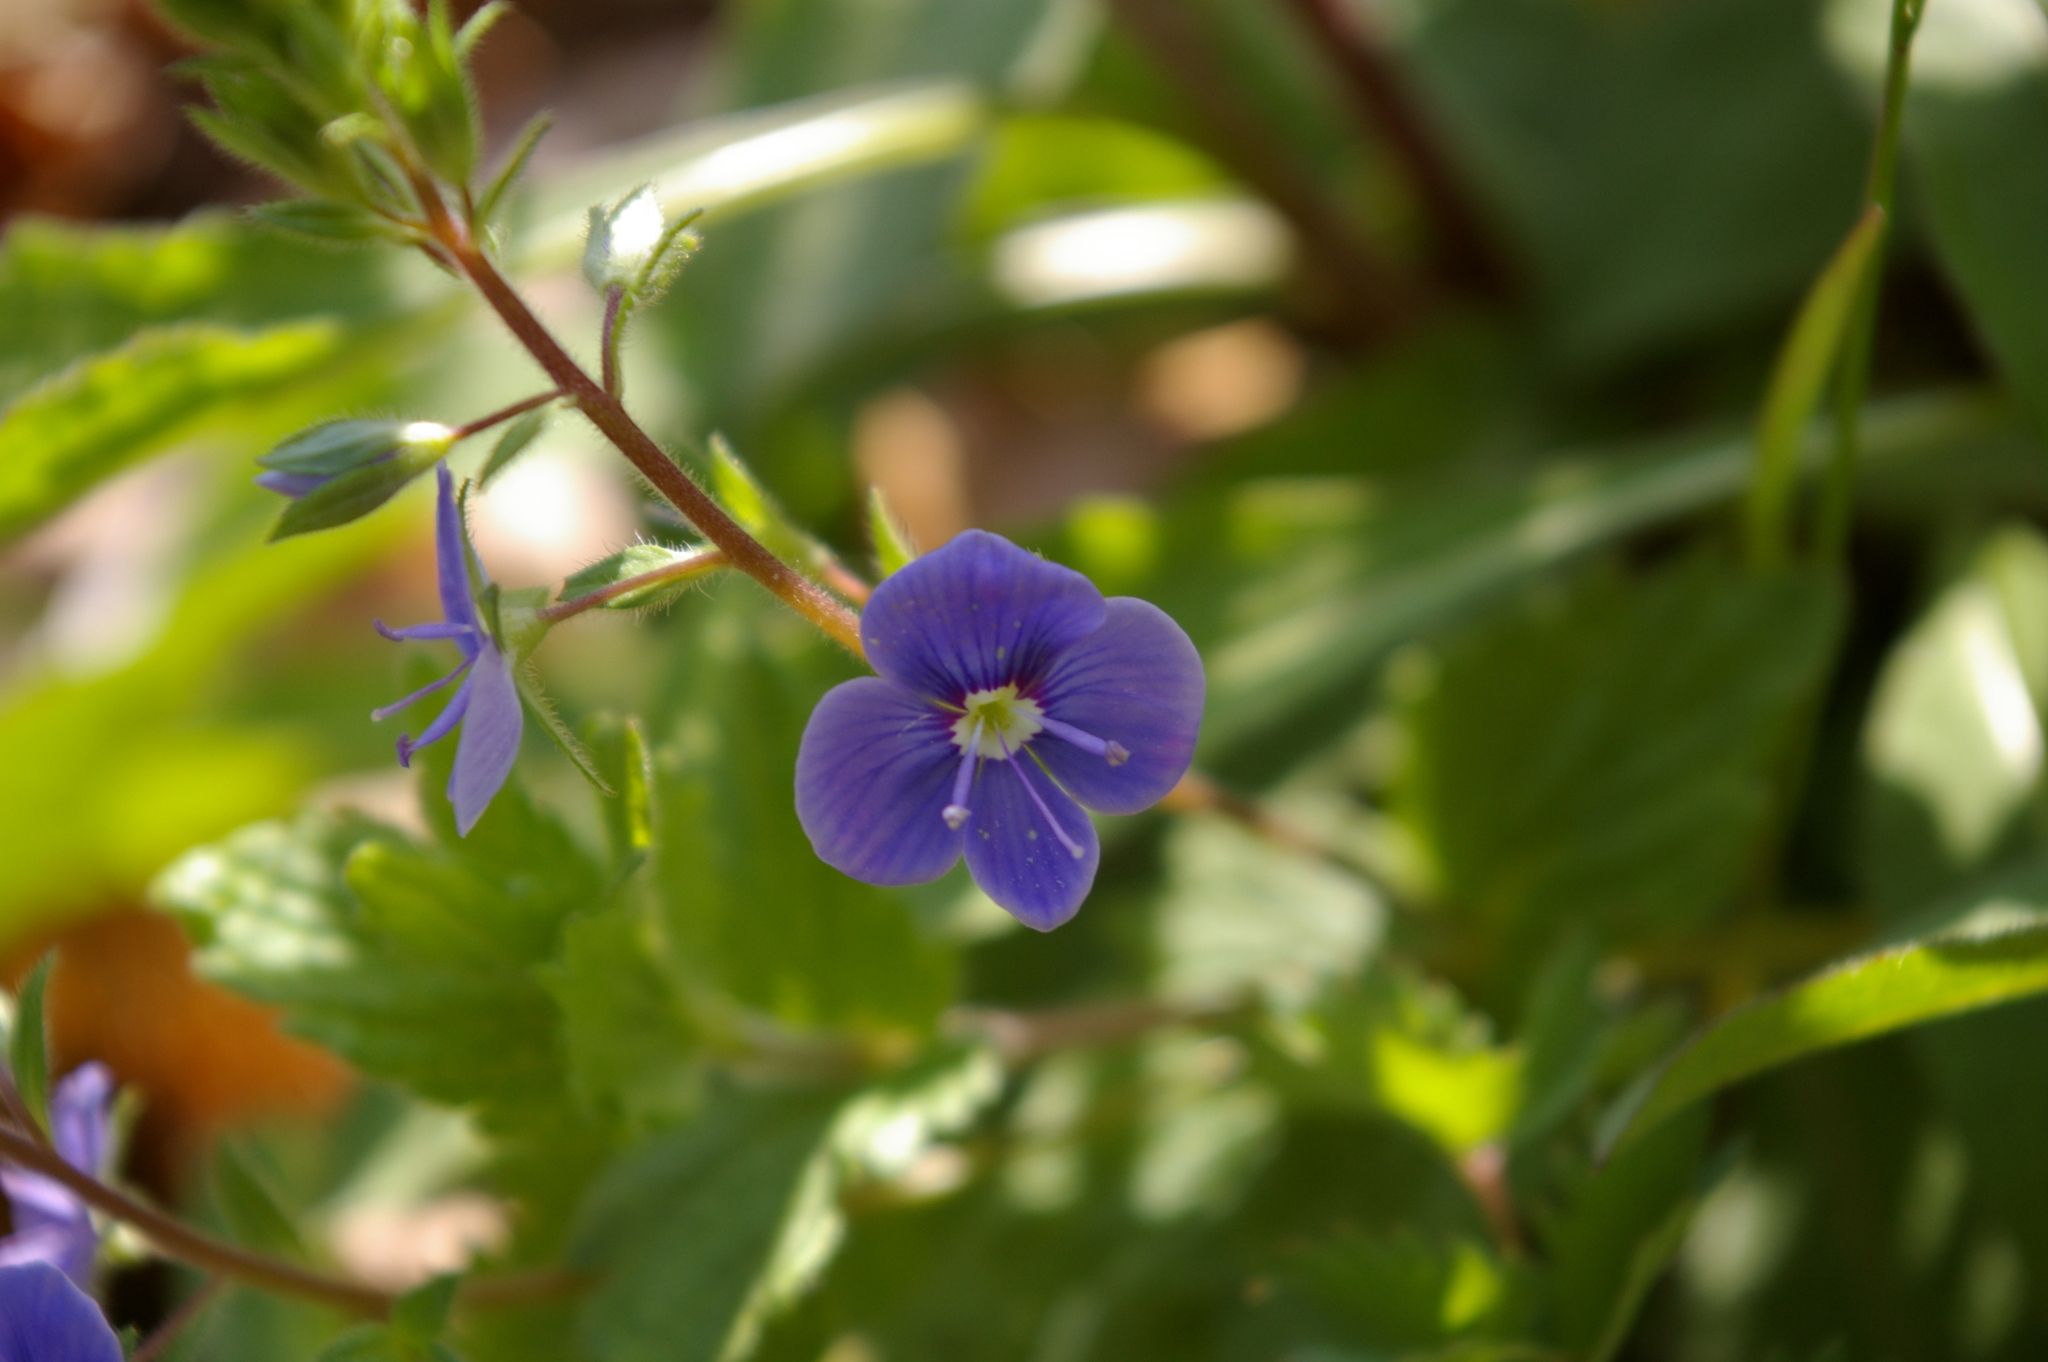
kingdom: Plantae
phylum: Tracheophyta
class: Magnoliopsida
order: Lamiales
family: Plantaginaceae
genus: Veronica
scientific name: Veronica chamaedrys
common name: Germander speedwell
